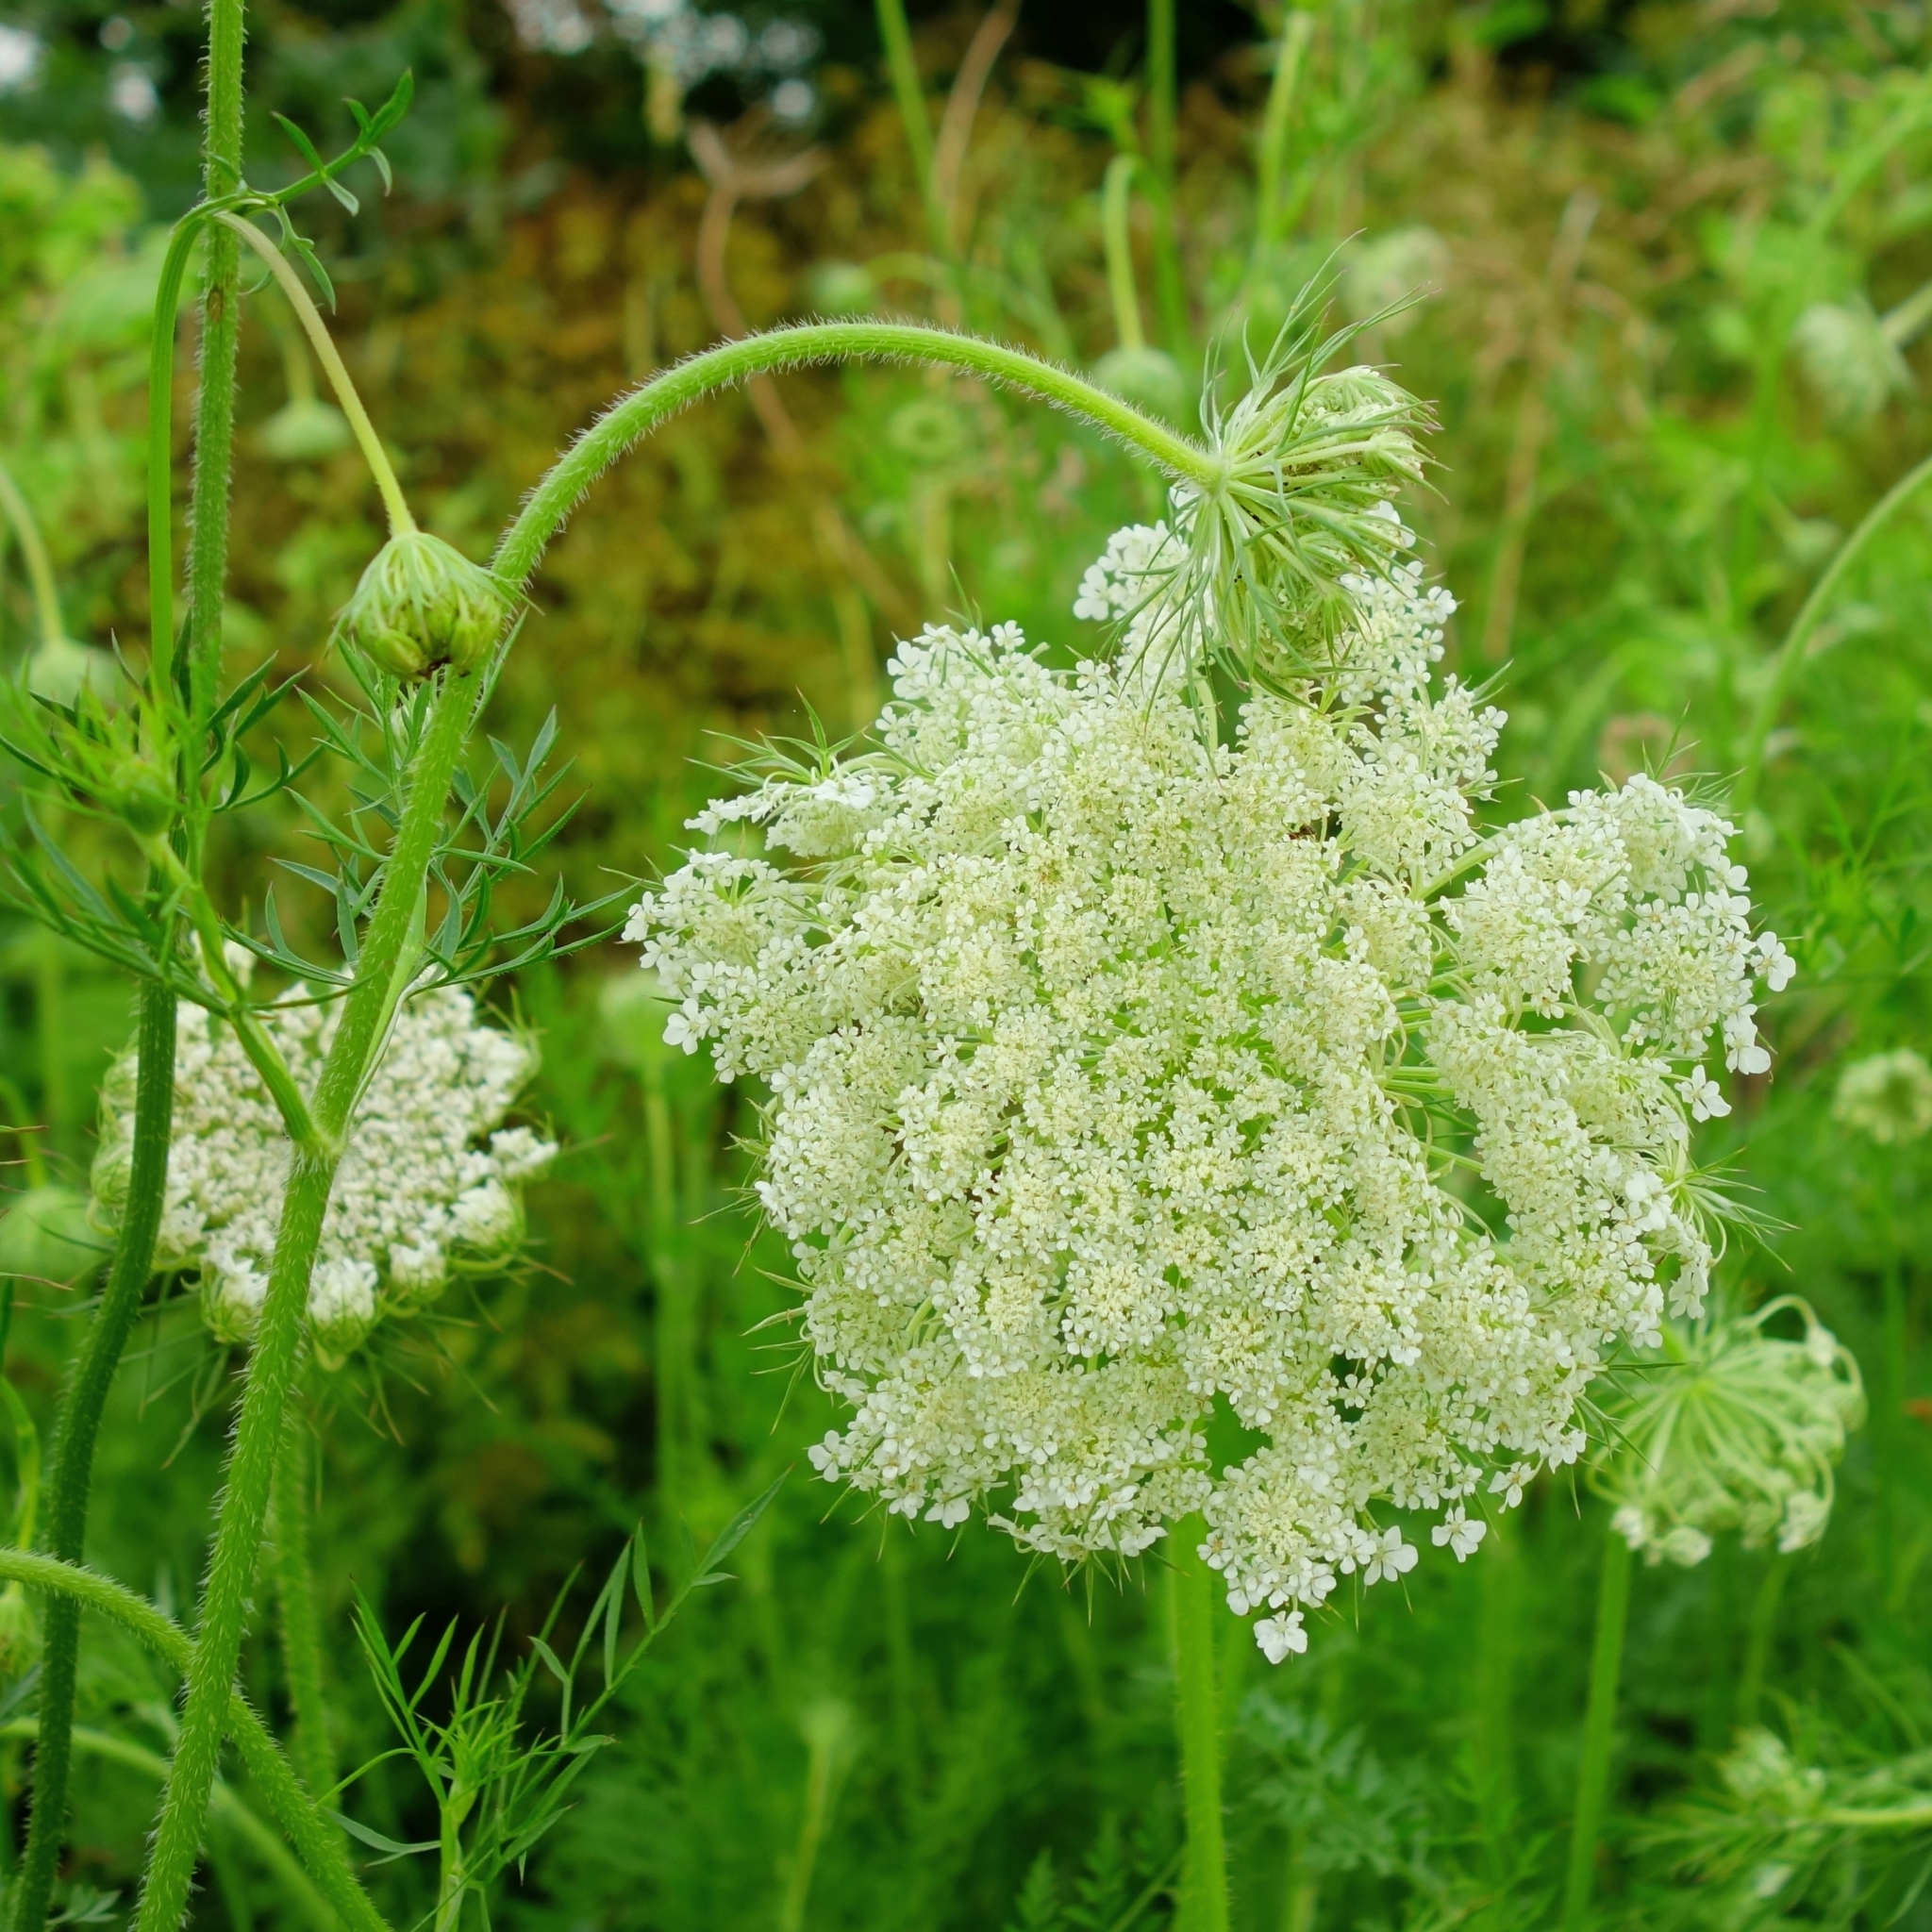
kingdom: Plantae
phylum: Tracheophyta
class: Magnoliopsida
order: Apiales
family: Apiaceae
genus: Daucus
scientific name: Daucus carota
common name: Wild carrot
